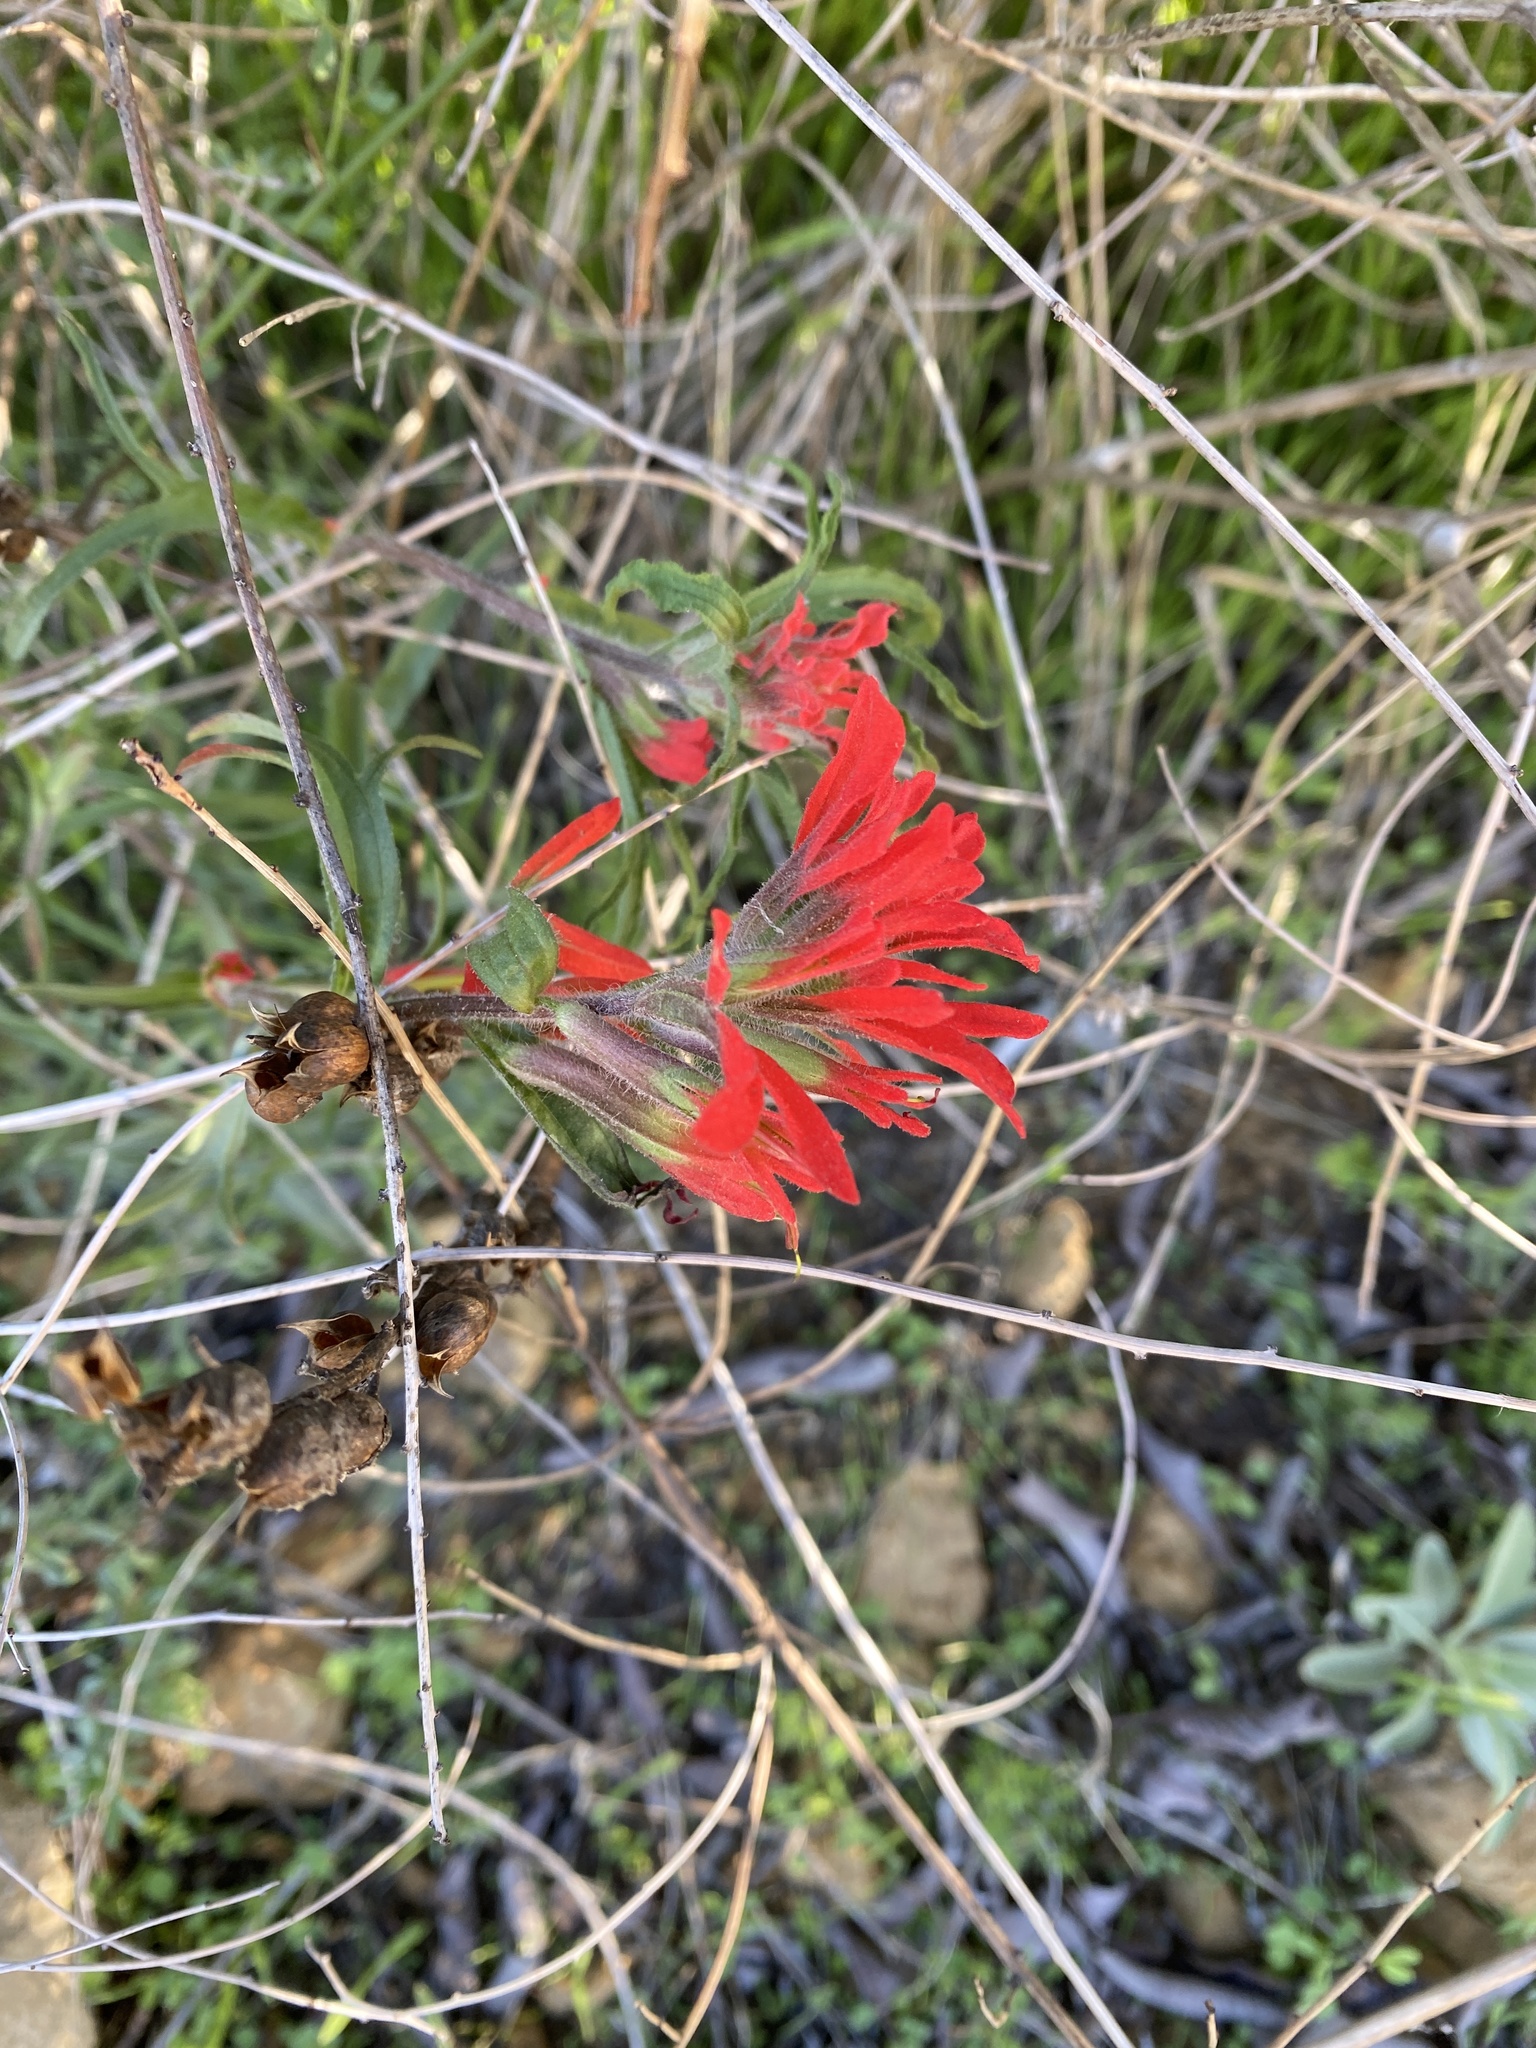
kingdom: Plantae
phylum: Tracheophyta
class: Magnoliopsida
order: Lamiales
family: Orobanchaceae
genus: Castilleja
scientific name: Castilleja affinis
